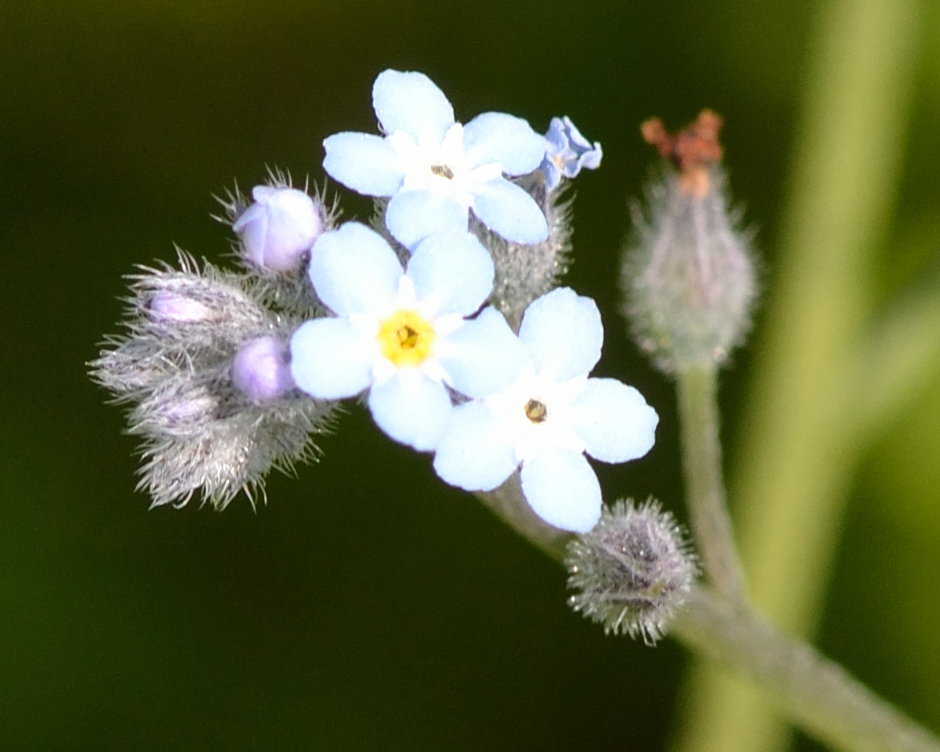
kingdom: Plantae
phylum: Tracheophyta
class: Magnoliopsida
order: Boraginales
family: Boraginaceae
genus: Myosotis
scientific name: Myosotis arvensis
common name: Field forget-me-not
